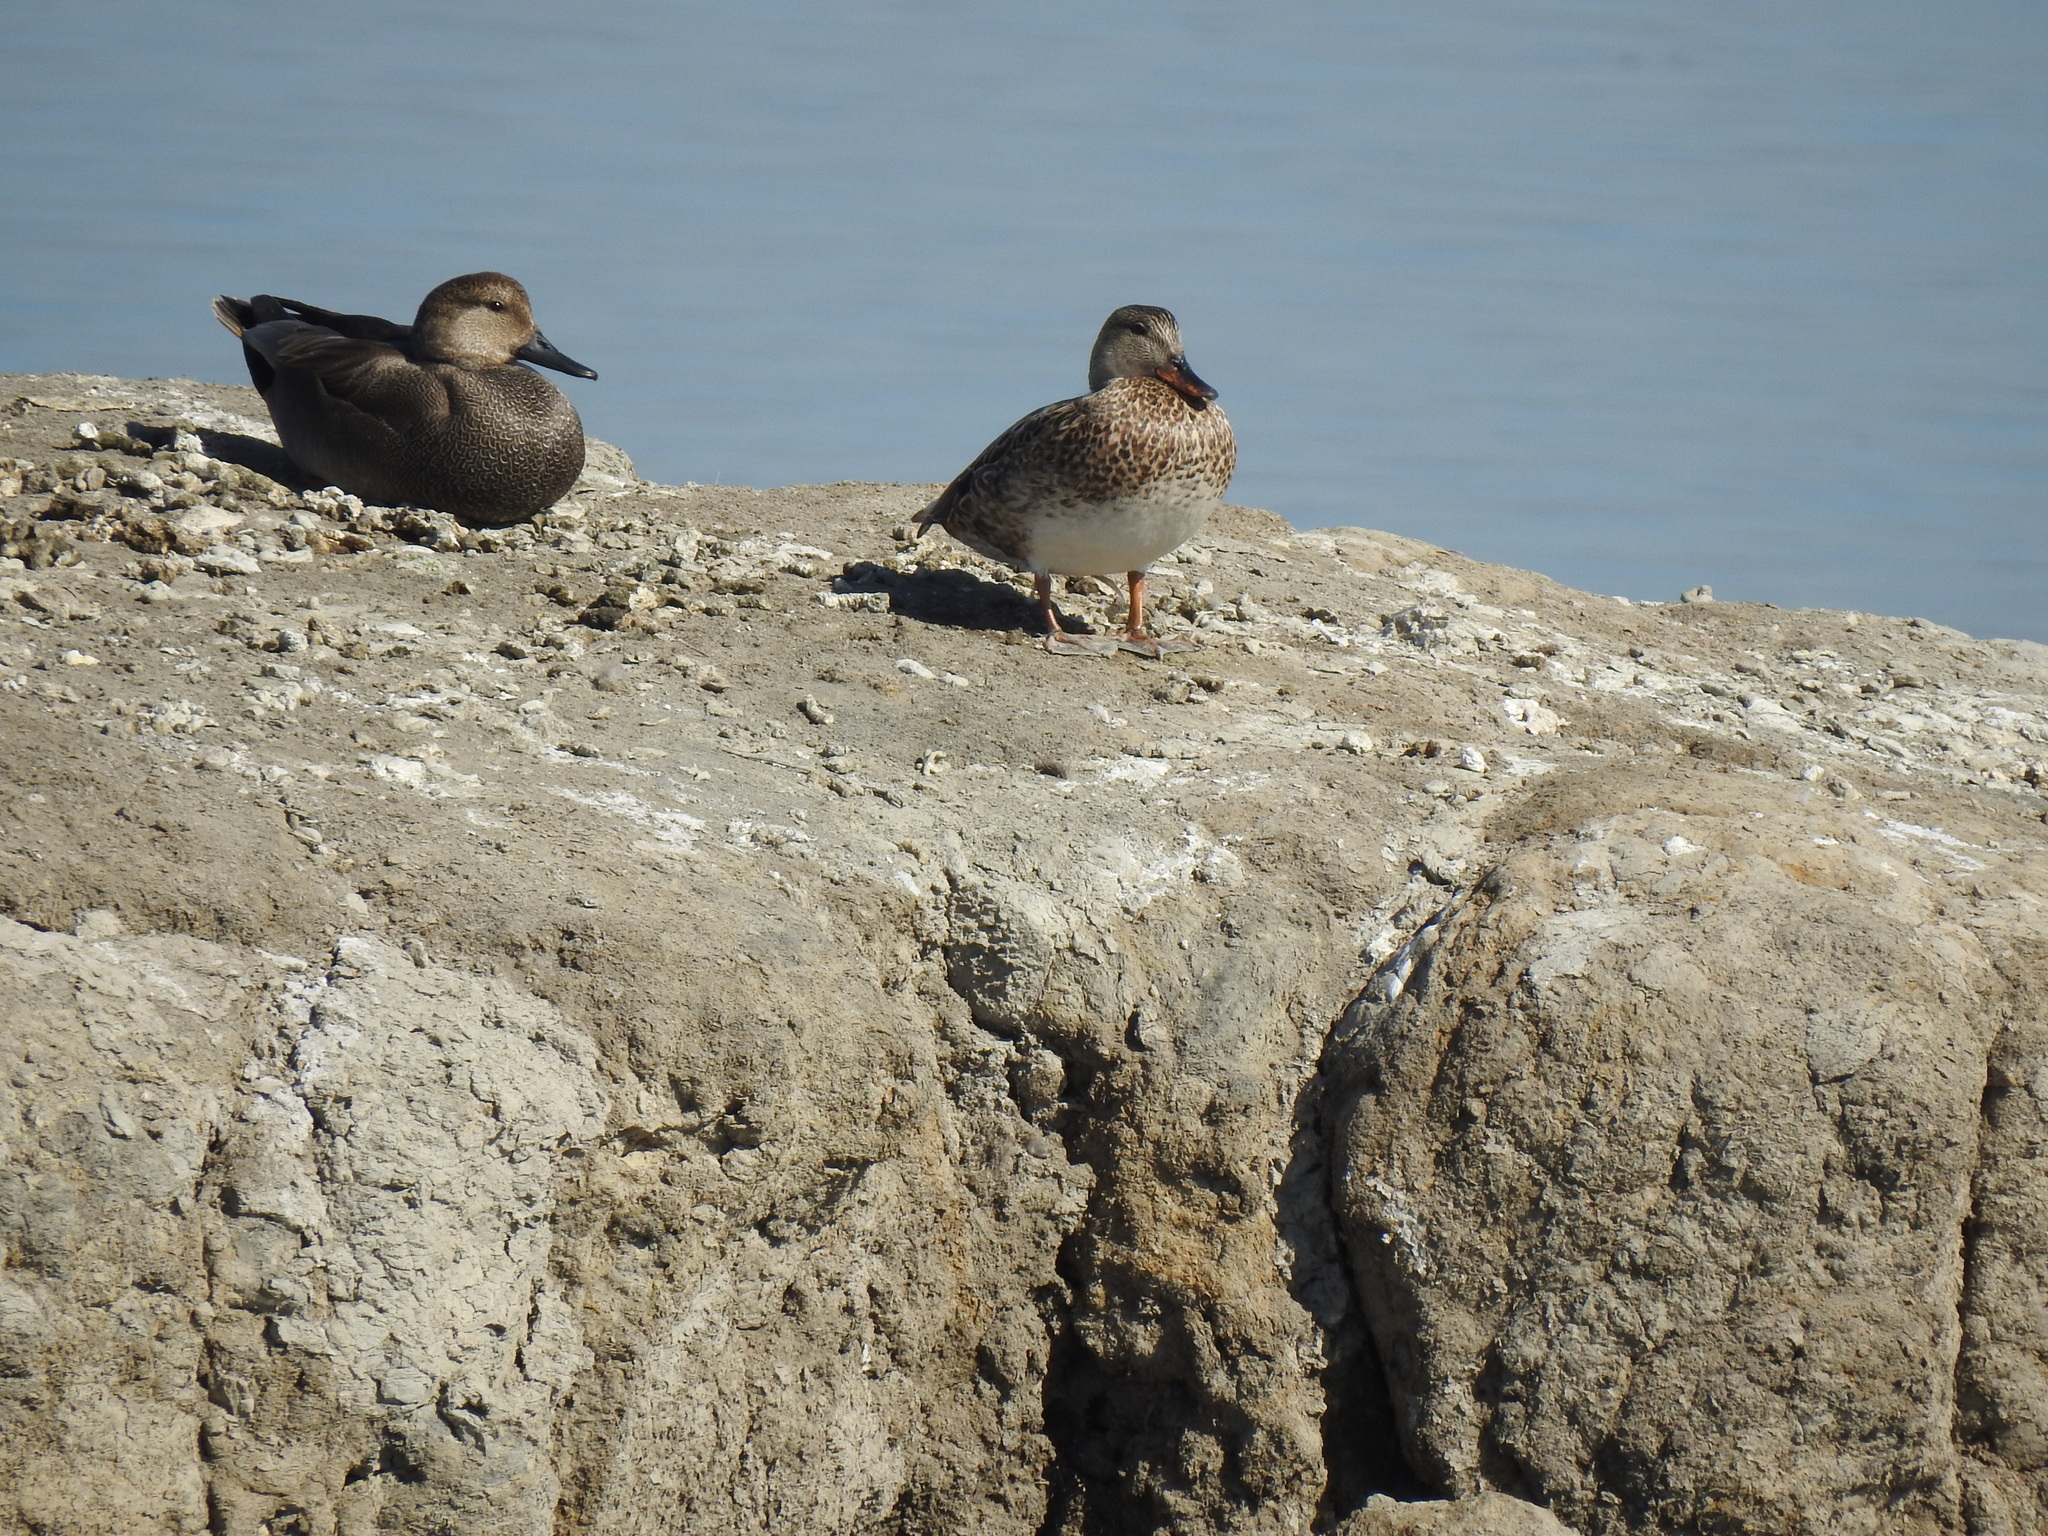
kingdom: Animalia
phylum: Chordata
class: Aves
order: Anseriformes
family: Anatidae
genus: Mareca
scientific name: Mareca strepera
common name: Gadwall
